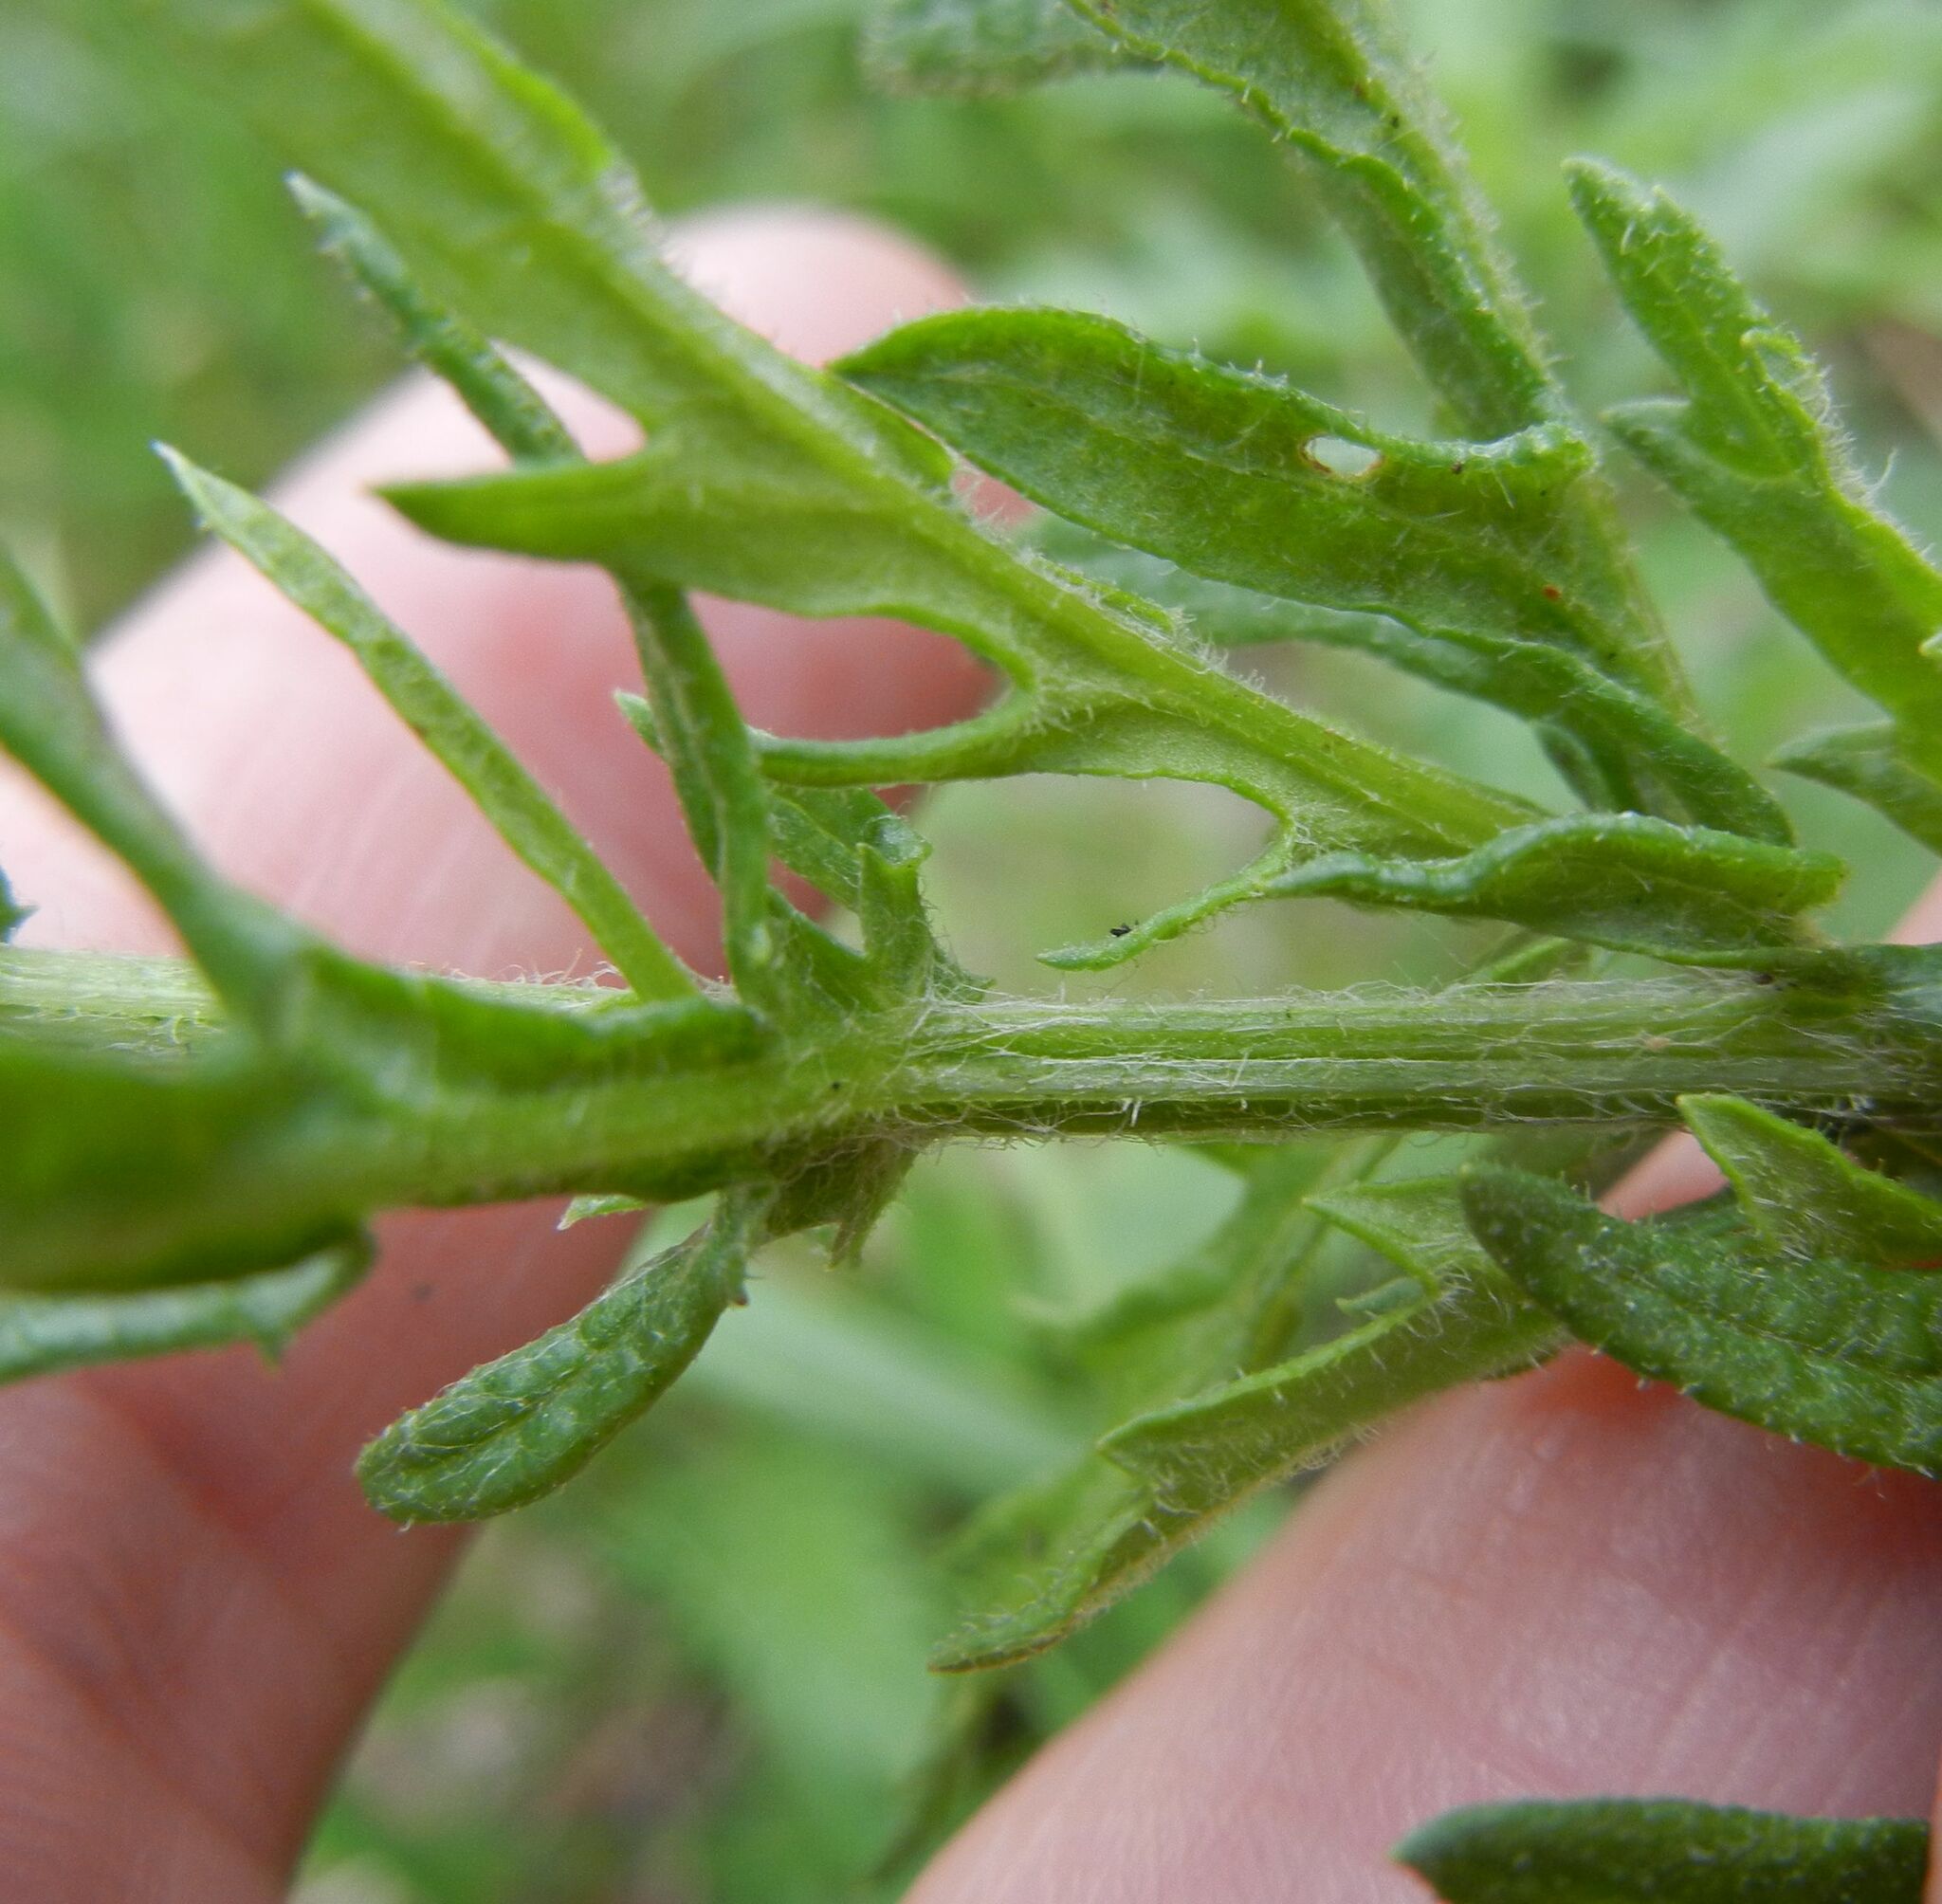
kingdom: Plantae
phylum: Tracheophyta
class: Magnoliopsida
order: Asterales
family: Asteraceae
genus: Jacobaea
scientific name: Jacobaea erucifolia
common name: Hoary ragwort
